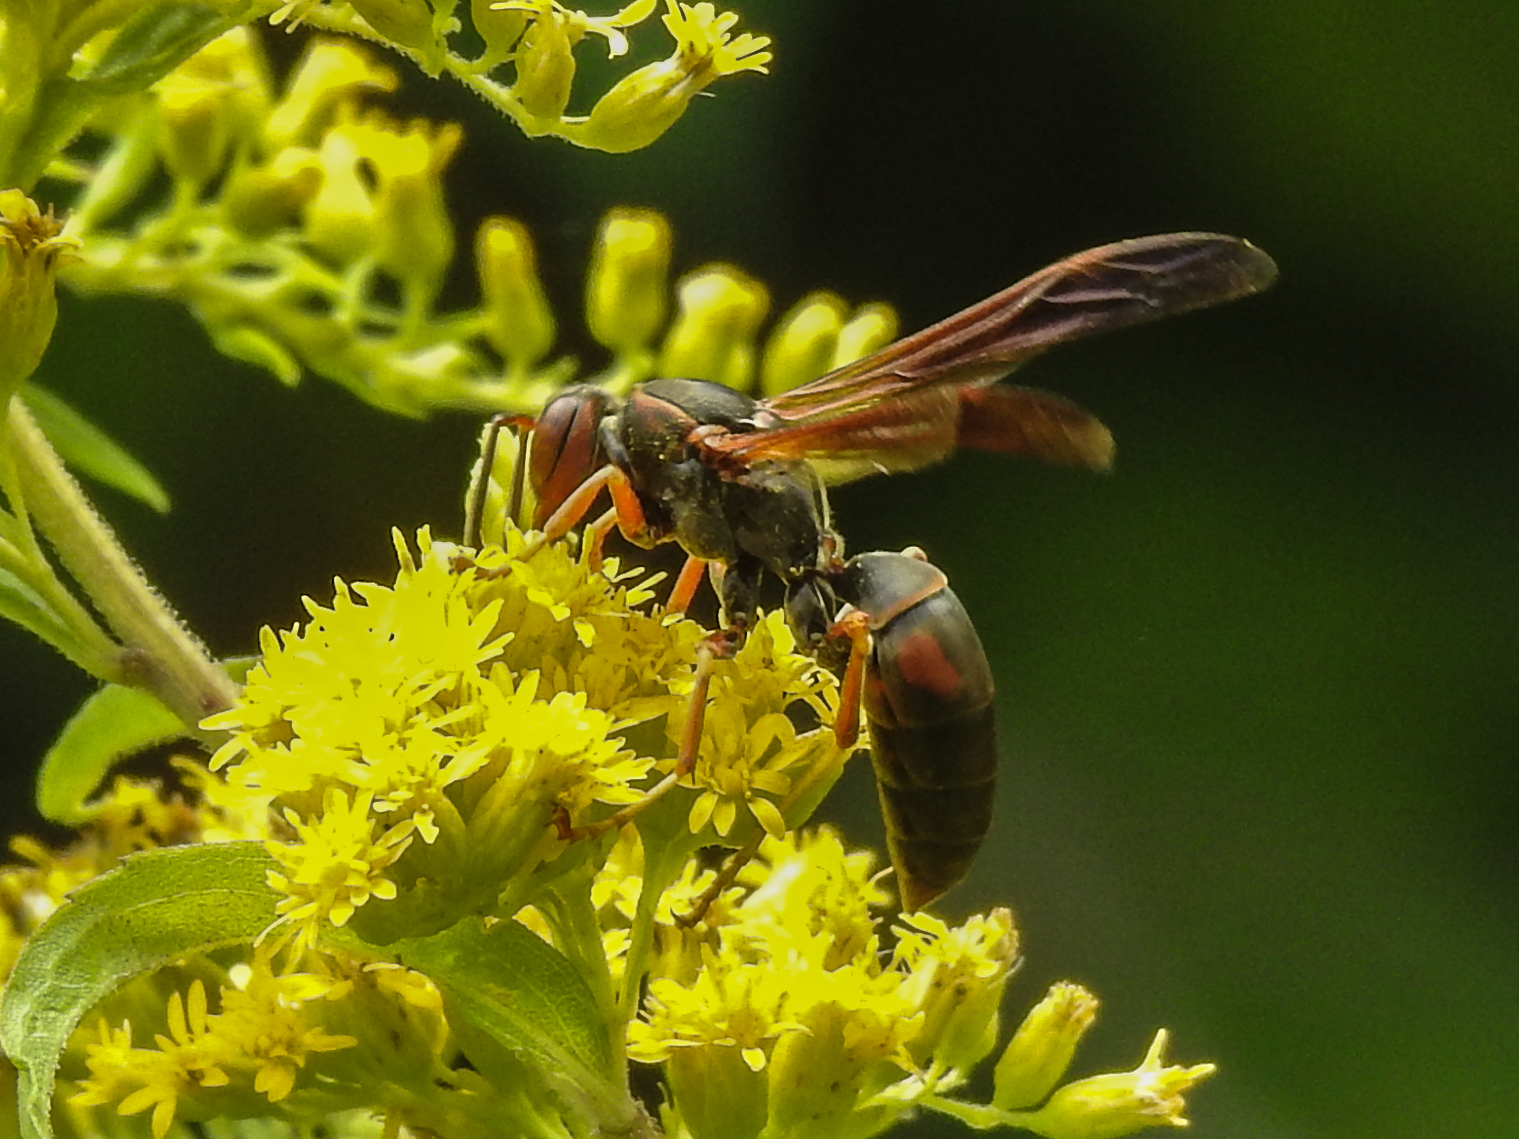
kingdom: Animalia
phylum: Arthropoda
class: Insecta
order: Hymenoptera
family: Eumenidae
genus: Polistes
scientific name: Polistes fuscatus
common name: Dark paper wasp
